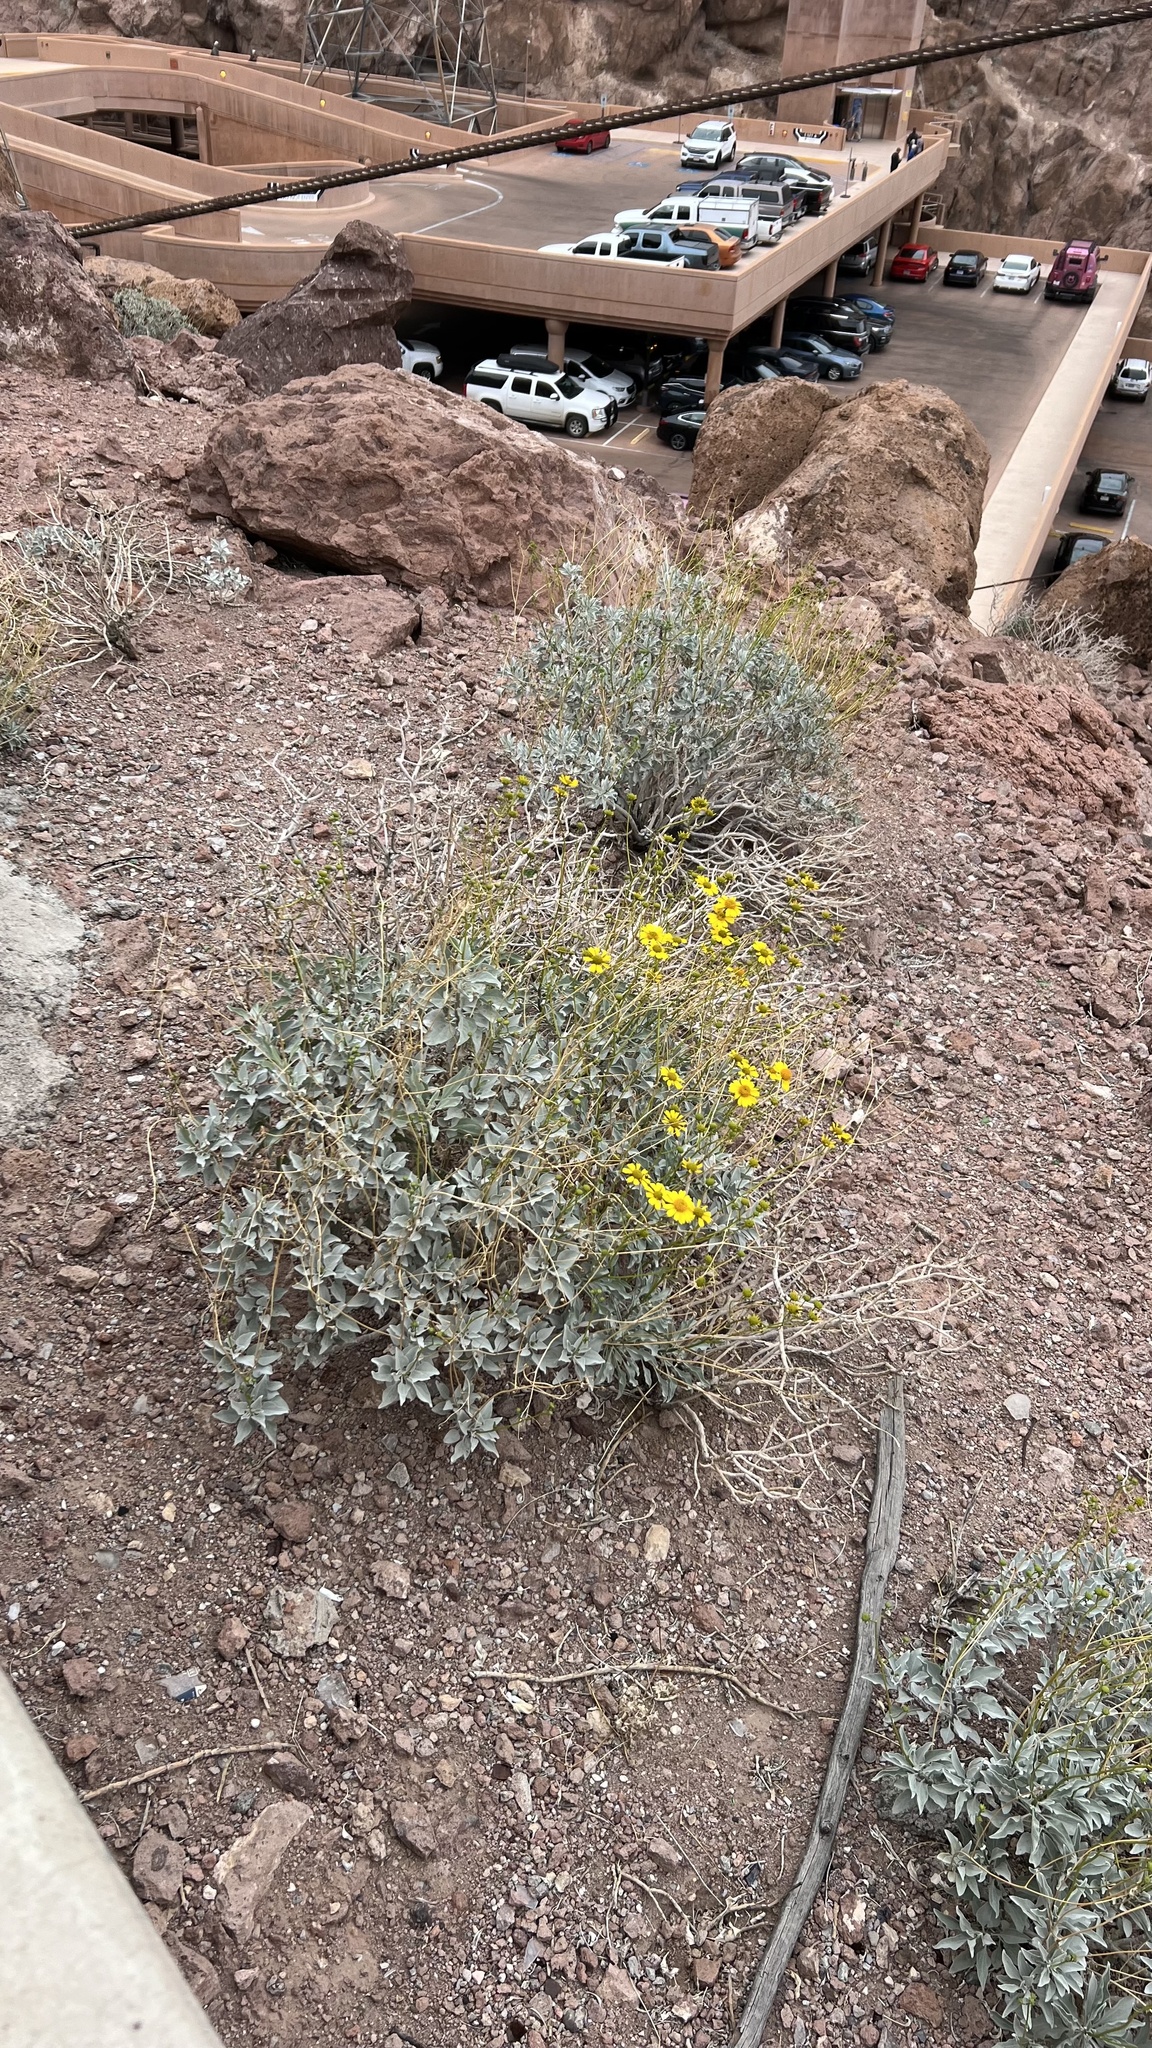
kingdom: Plantae
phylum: Tracheophyta
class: Magnoliopsida
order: Asterales
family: Asteraceae
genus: Encelia
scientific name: Encelia farinosa
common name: Brittlebush
